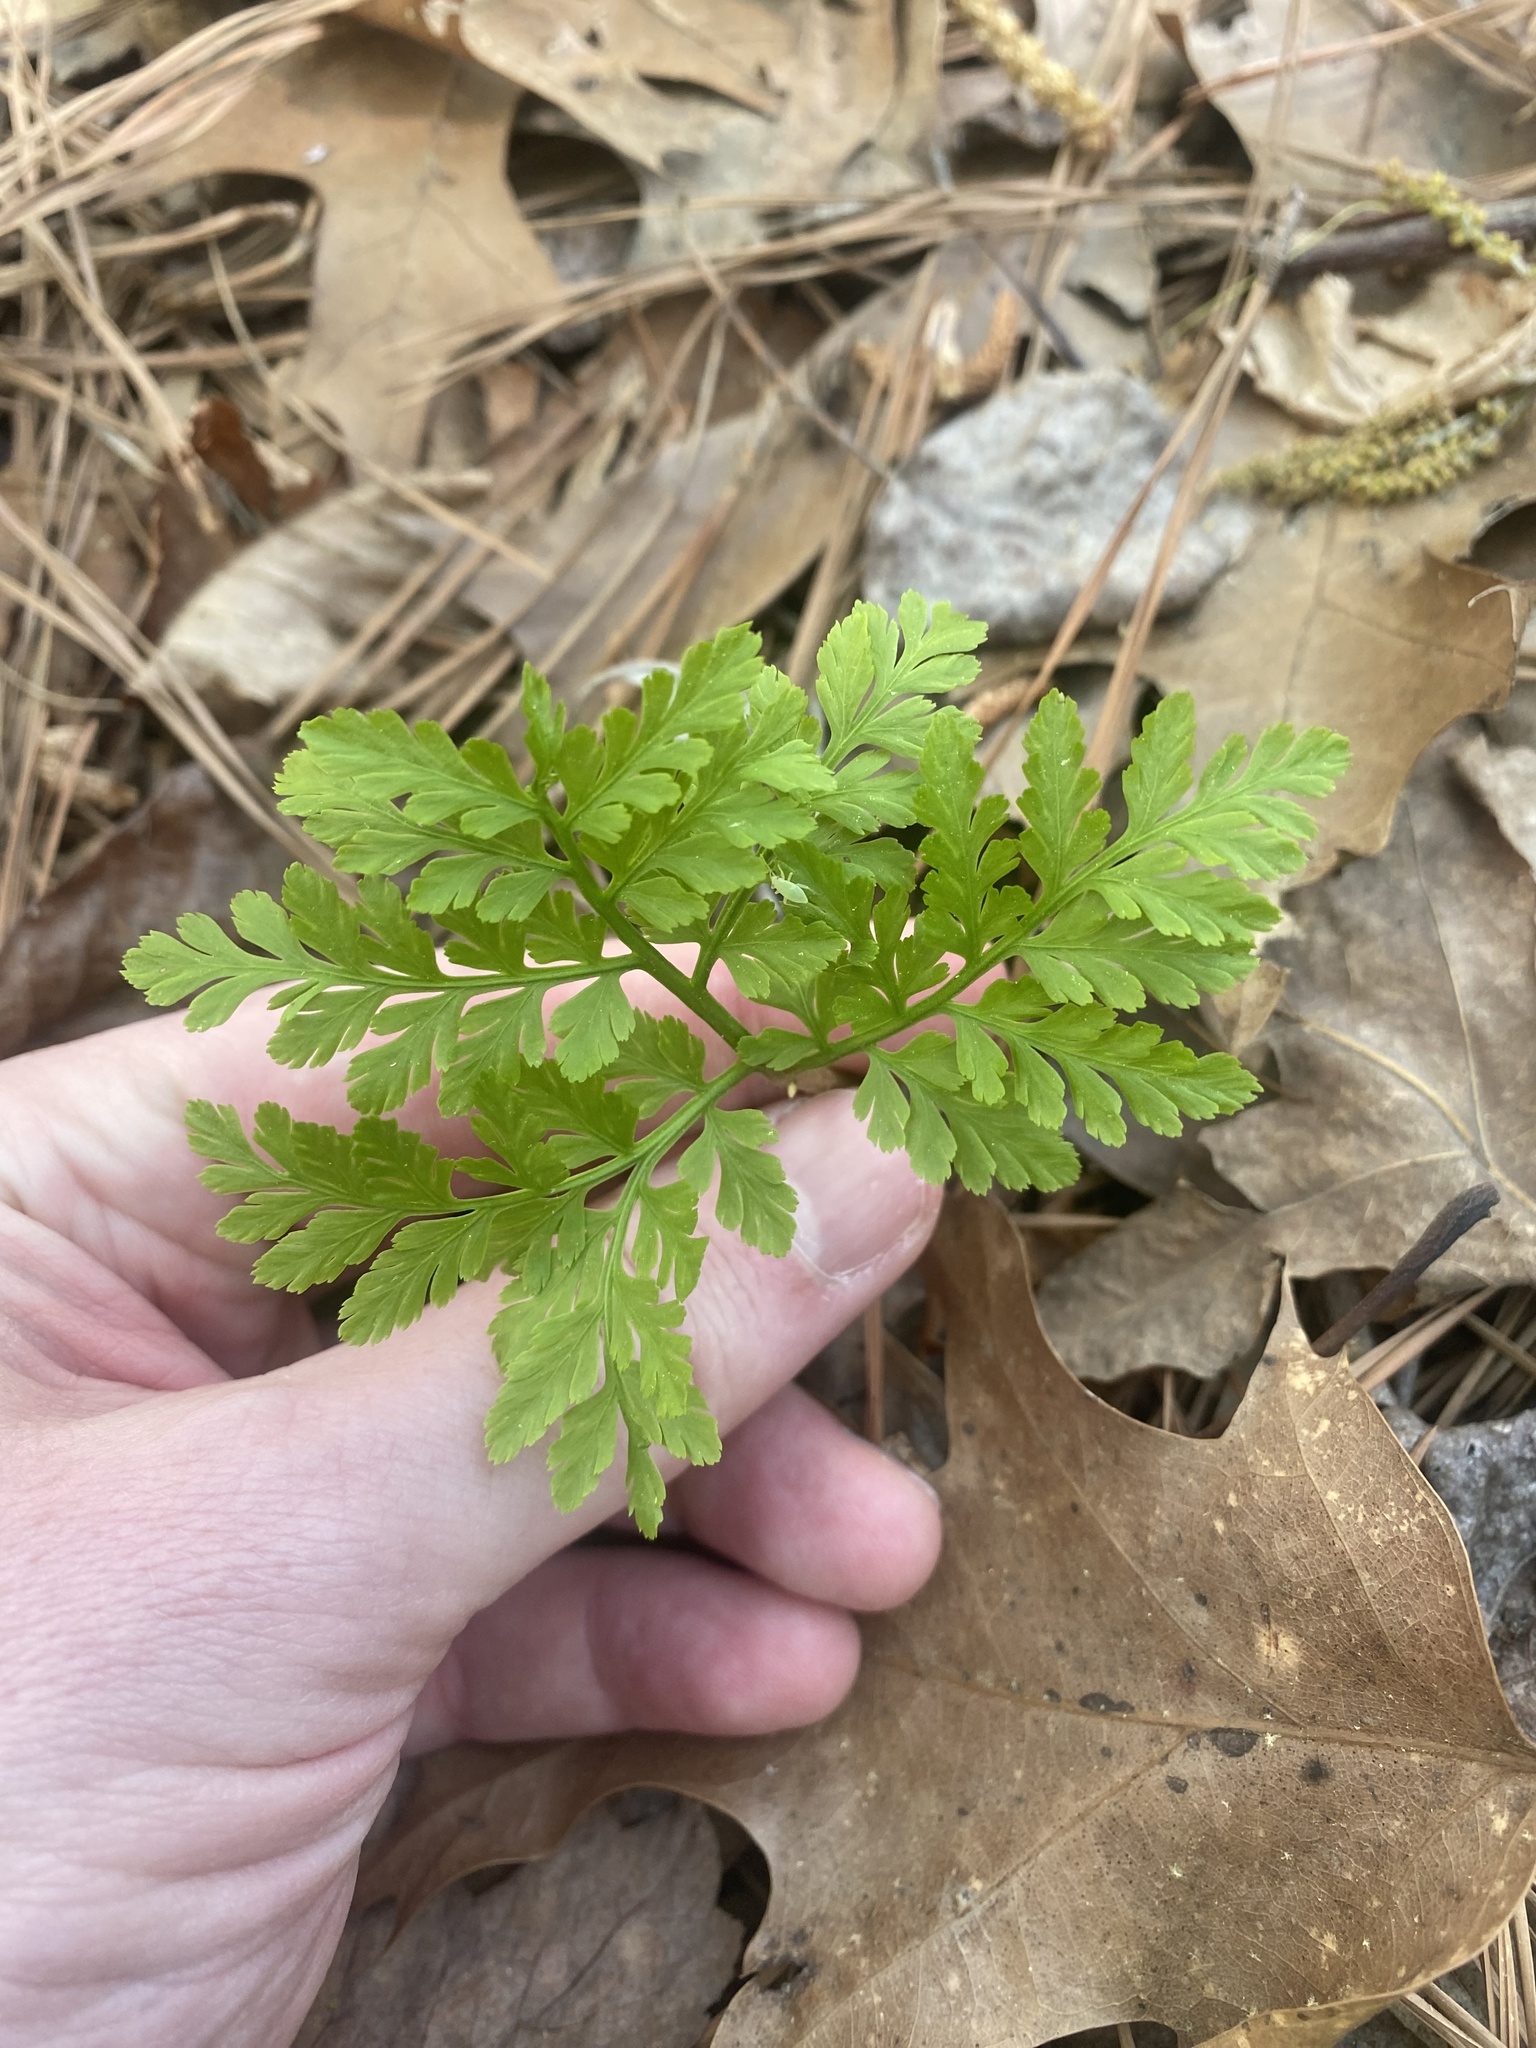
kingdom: Plantae
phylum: Tracheophyta
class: Polypodiopsida
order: Ophioglossales
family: Ophioglossaceae
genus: Botrypus
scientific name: Botrypus virginianus
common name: Common grapefern
